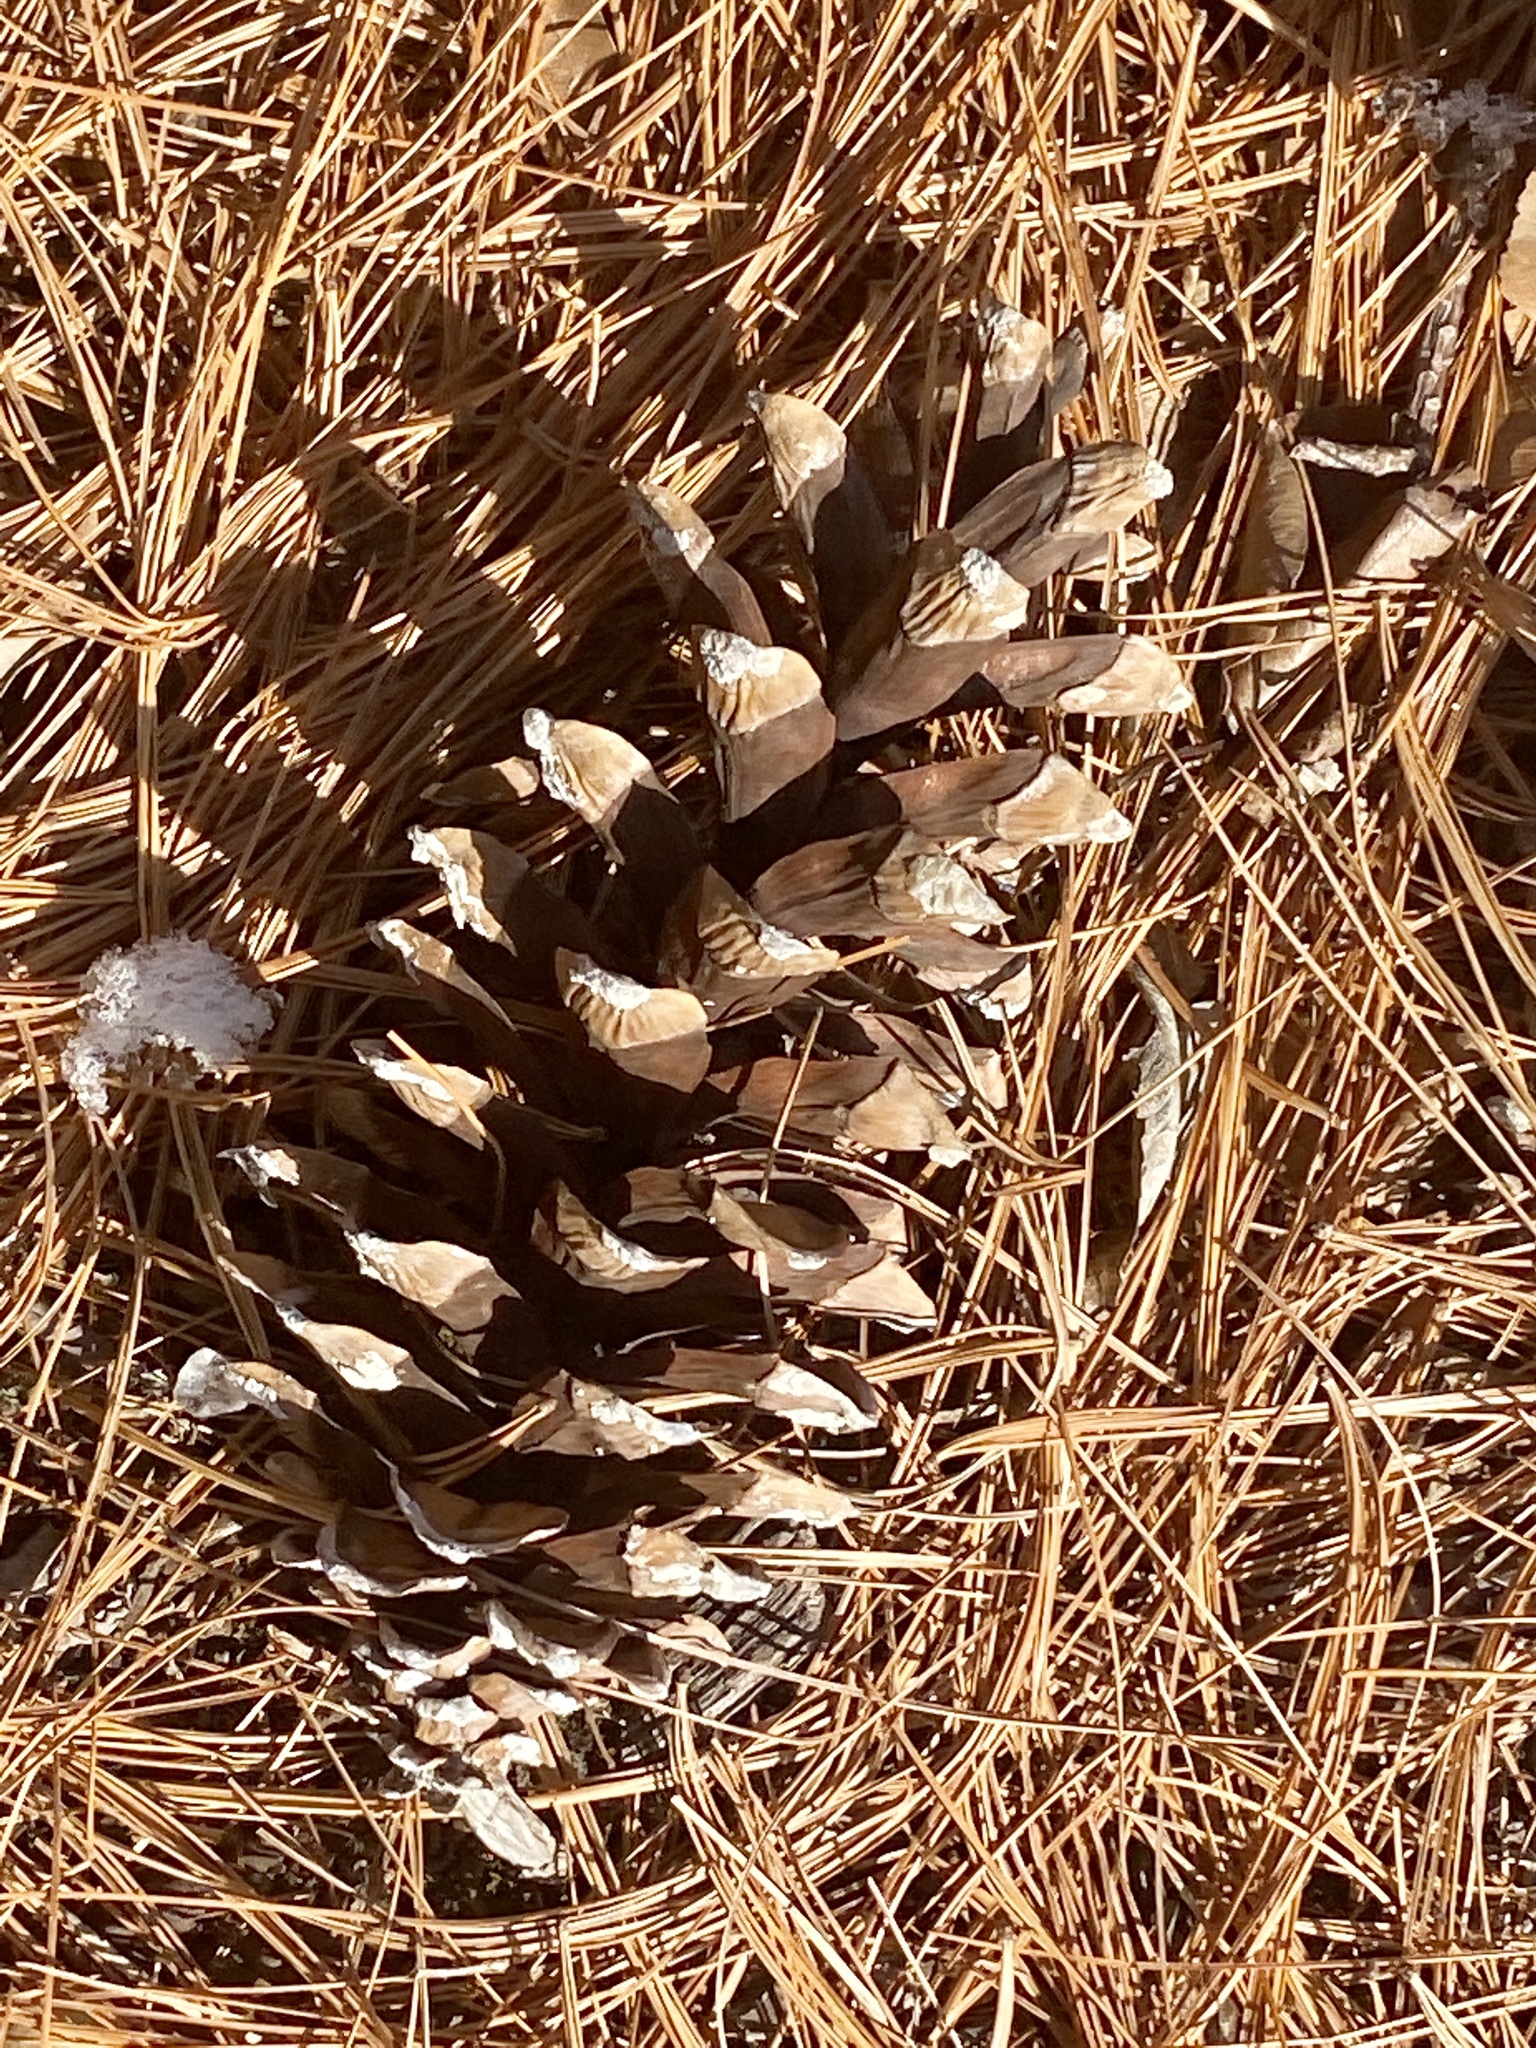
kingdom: Plantae
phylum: Tracheophyta
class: Pinopsida
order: Pinales
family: Pinaceae
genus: Pinus
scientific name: Pinus strobus
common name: Weymouth pine
